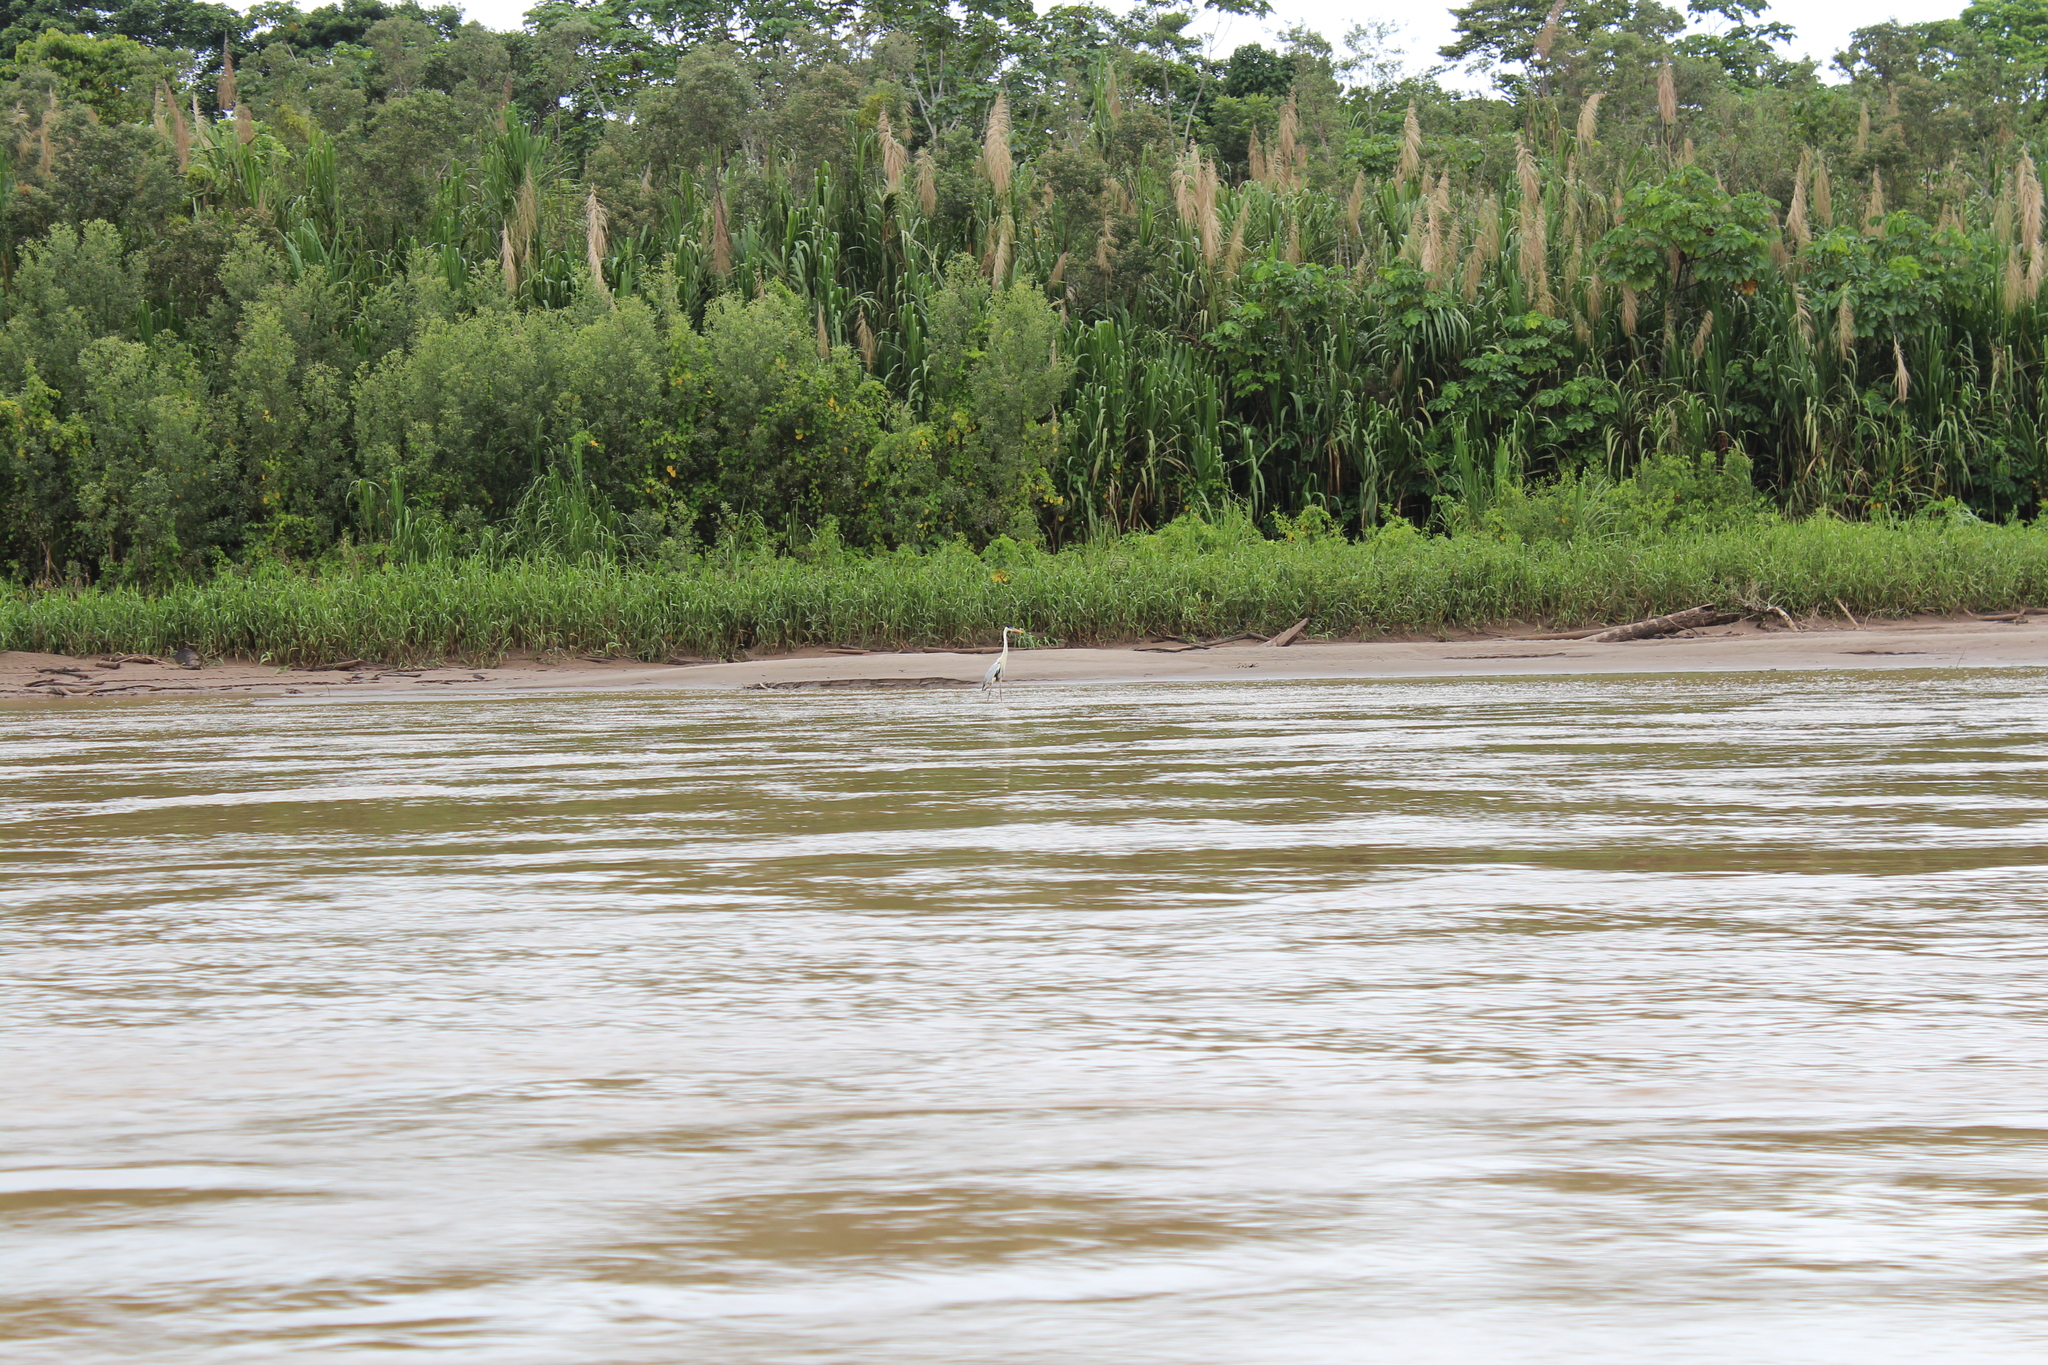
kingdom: Animalia
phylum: Chordata
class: Aves
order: Pelecaniformes
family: Ardeidae
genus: Ardea
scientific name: Ardea cocoi
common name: Cocoi heron
